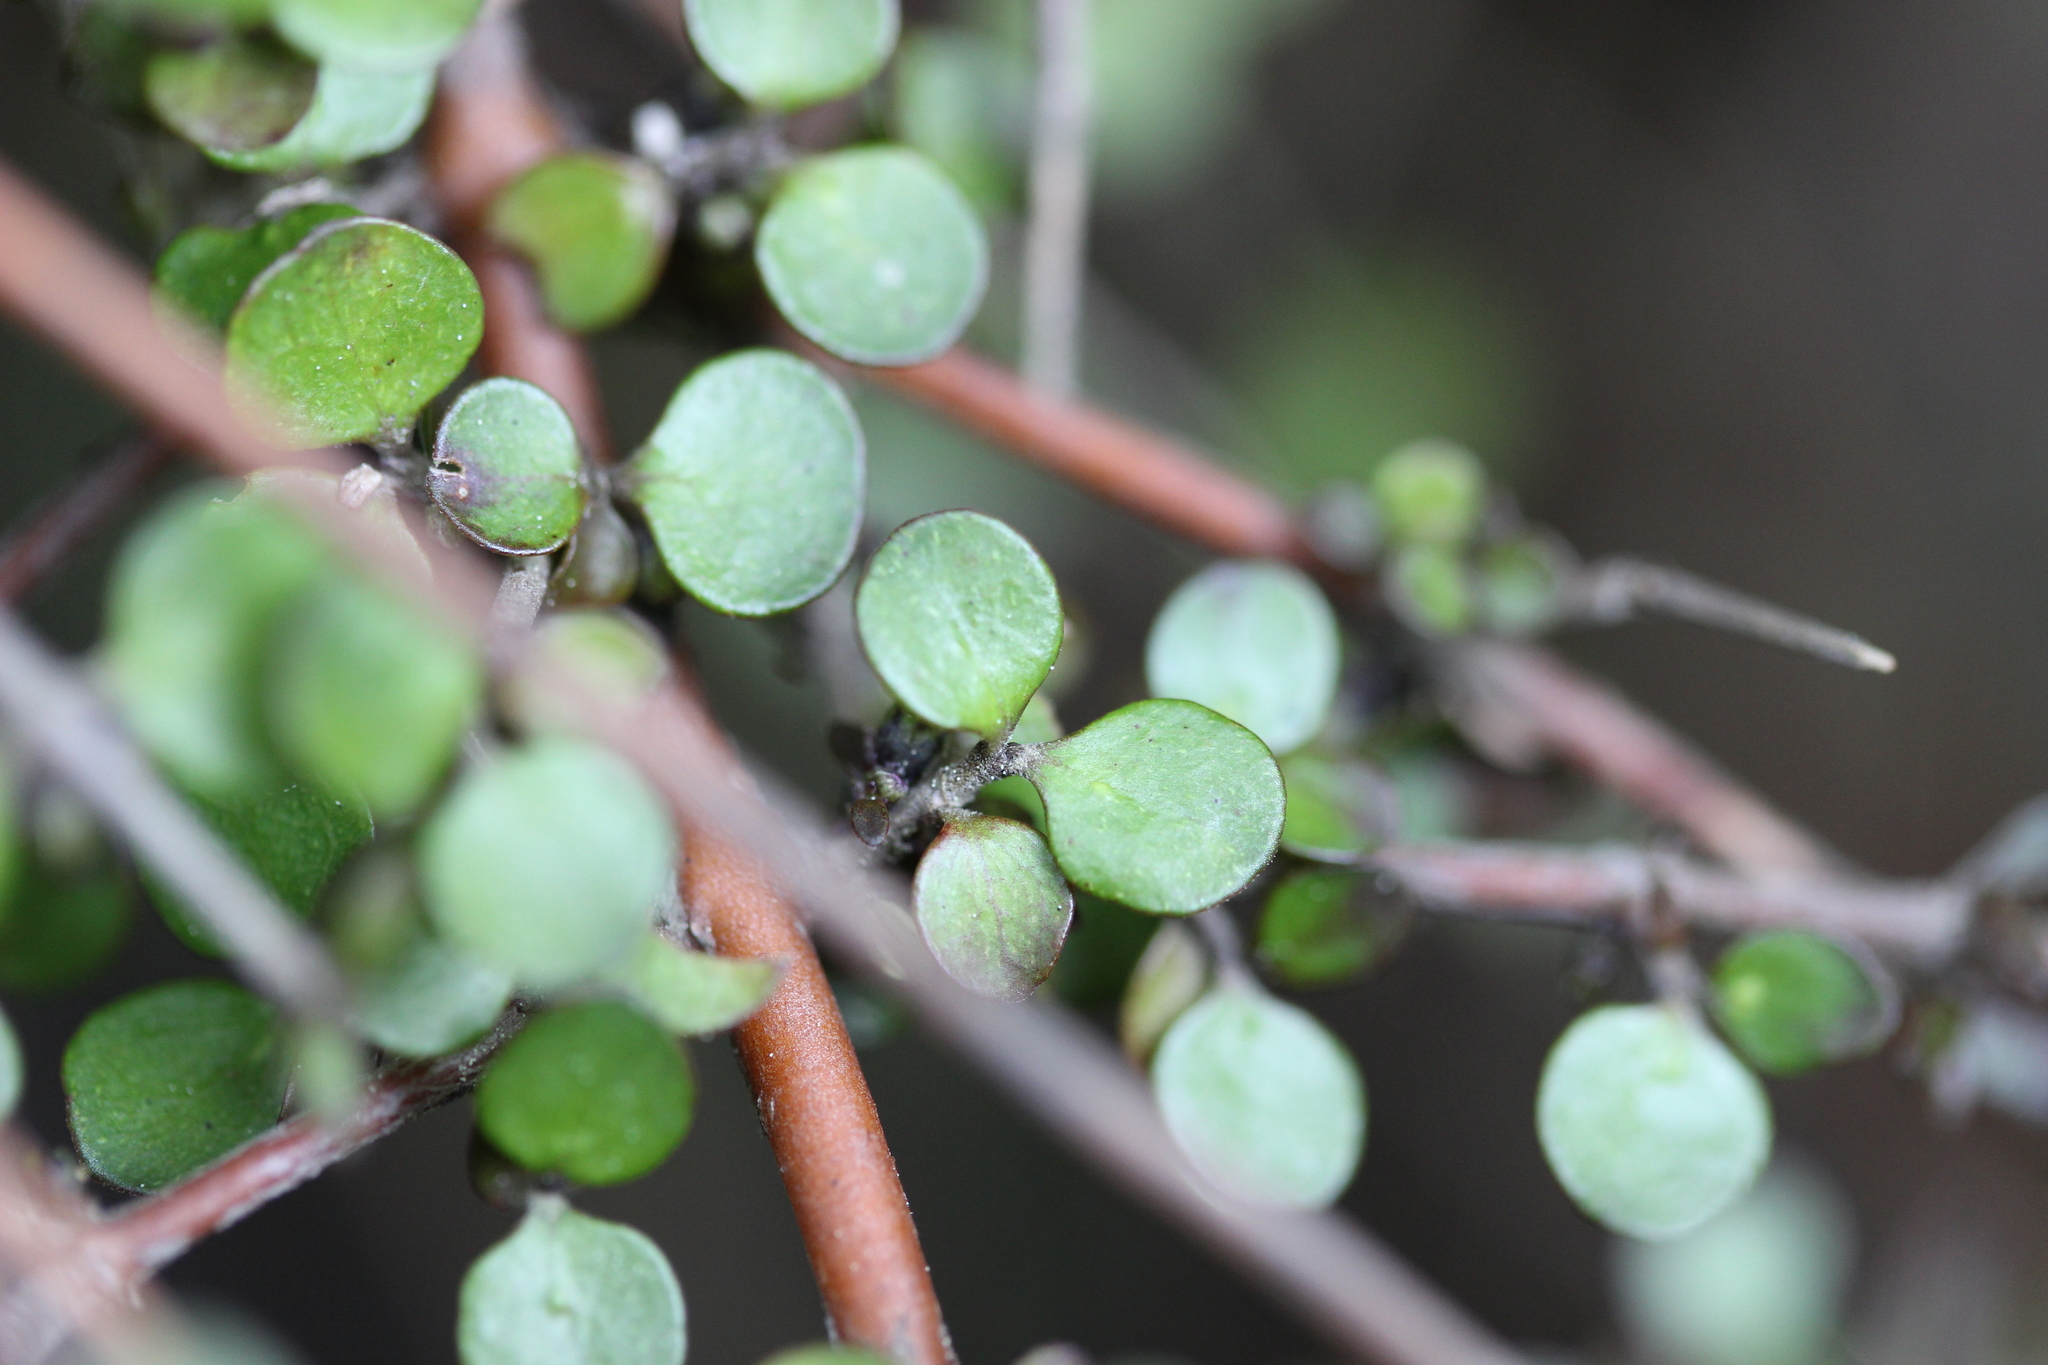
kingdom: Plantae
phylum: Tracheophyta
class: Magnoliopsida
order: Gentianales
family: Rubiaceae
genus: Coprosma
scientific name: Coprosma rhamnoides
